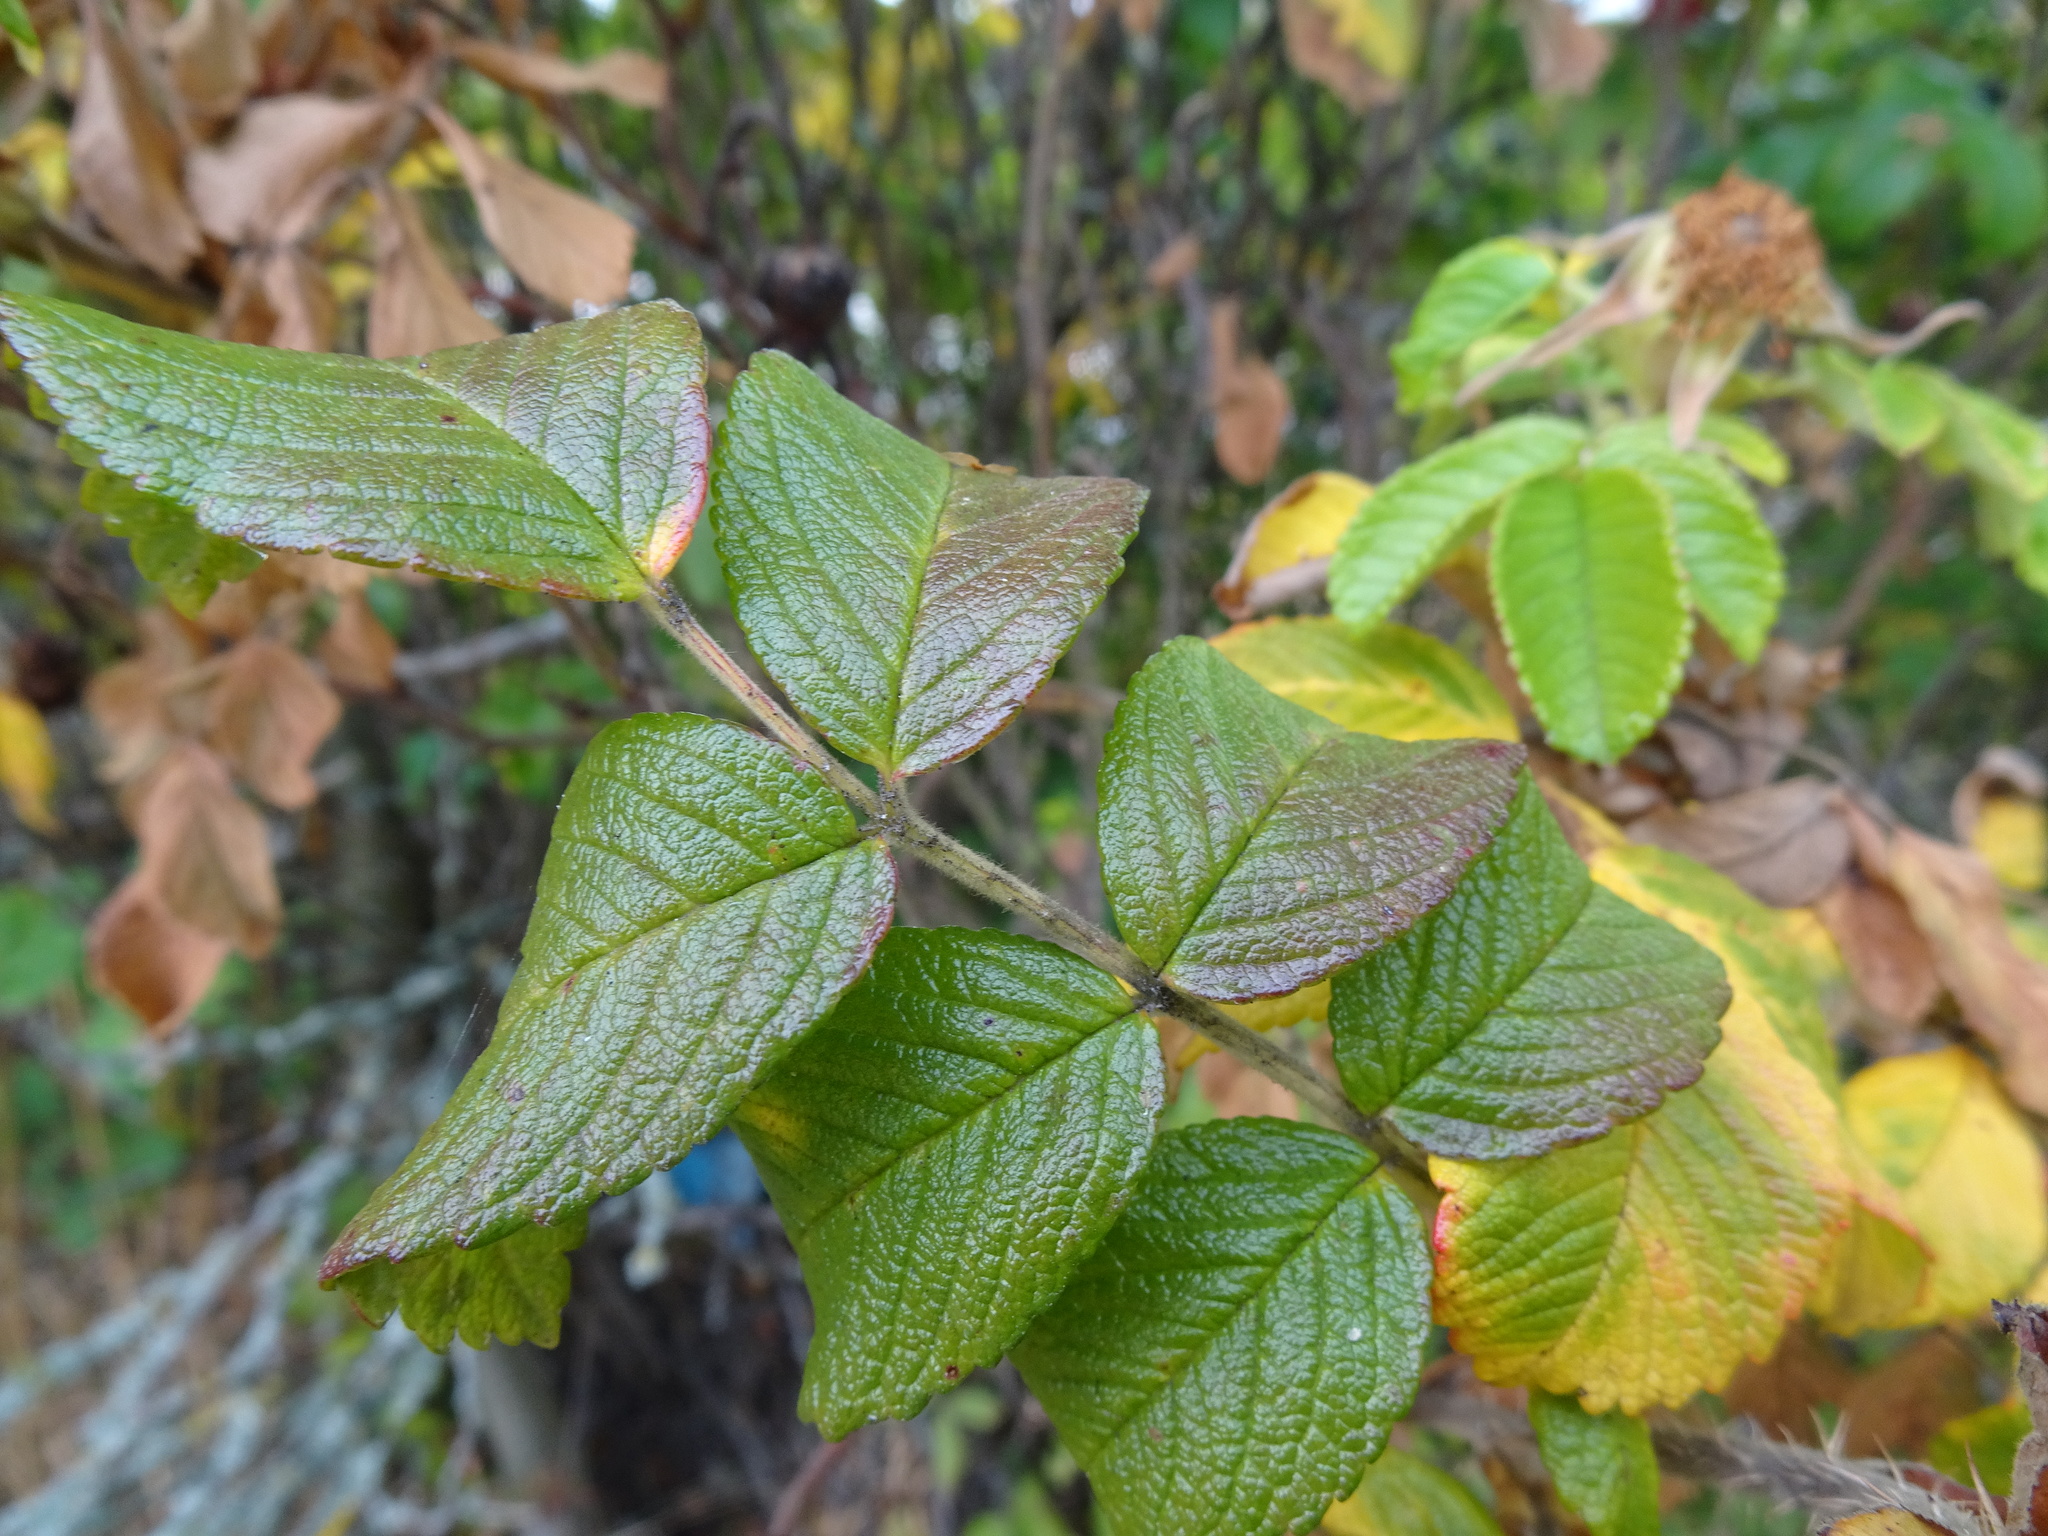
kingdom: Plantae
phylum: Tracheophyta
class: Magnoliopsida
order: Rosales
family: Rosaceae
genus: Rosa
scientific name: Rosa rugosa
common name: Japanese rose
